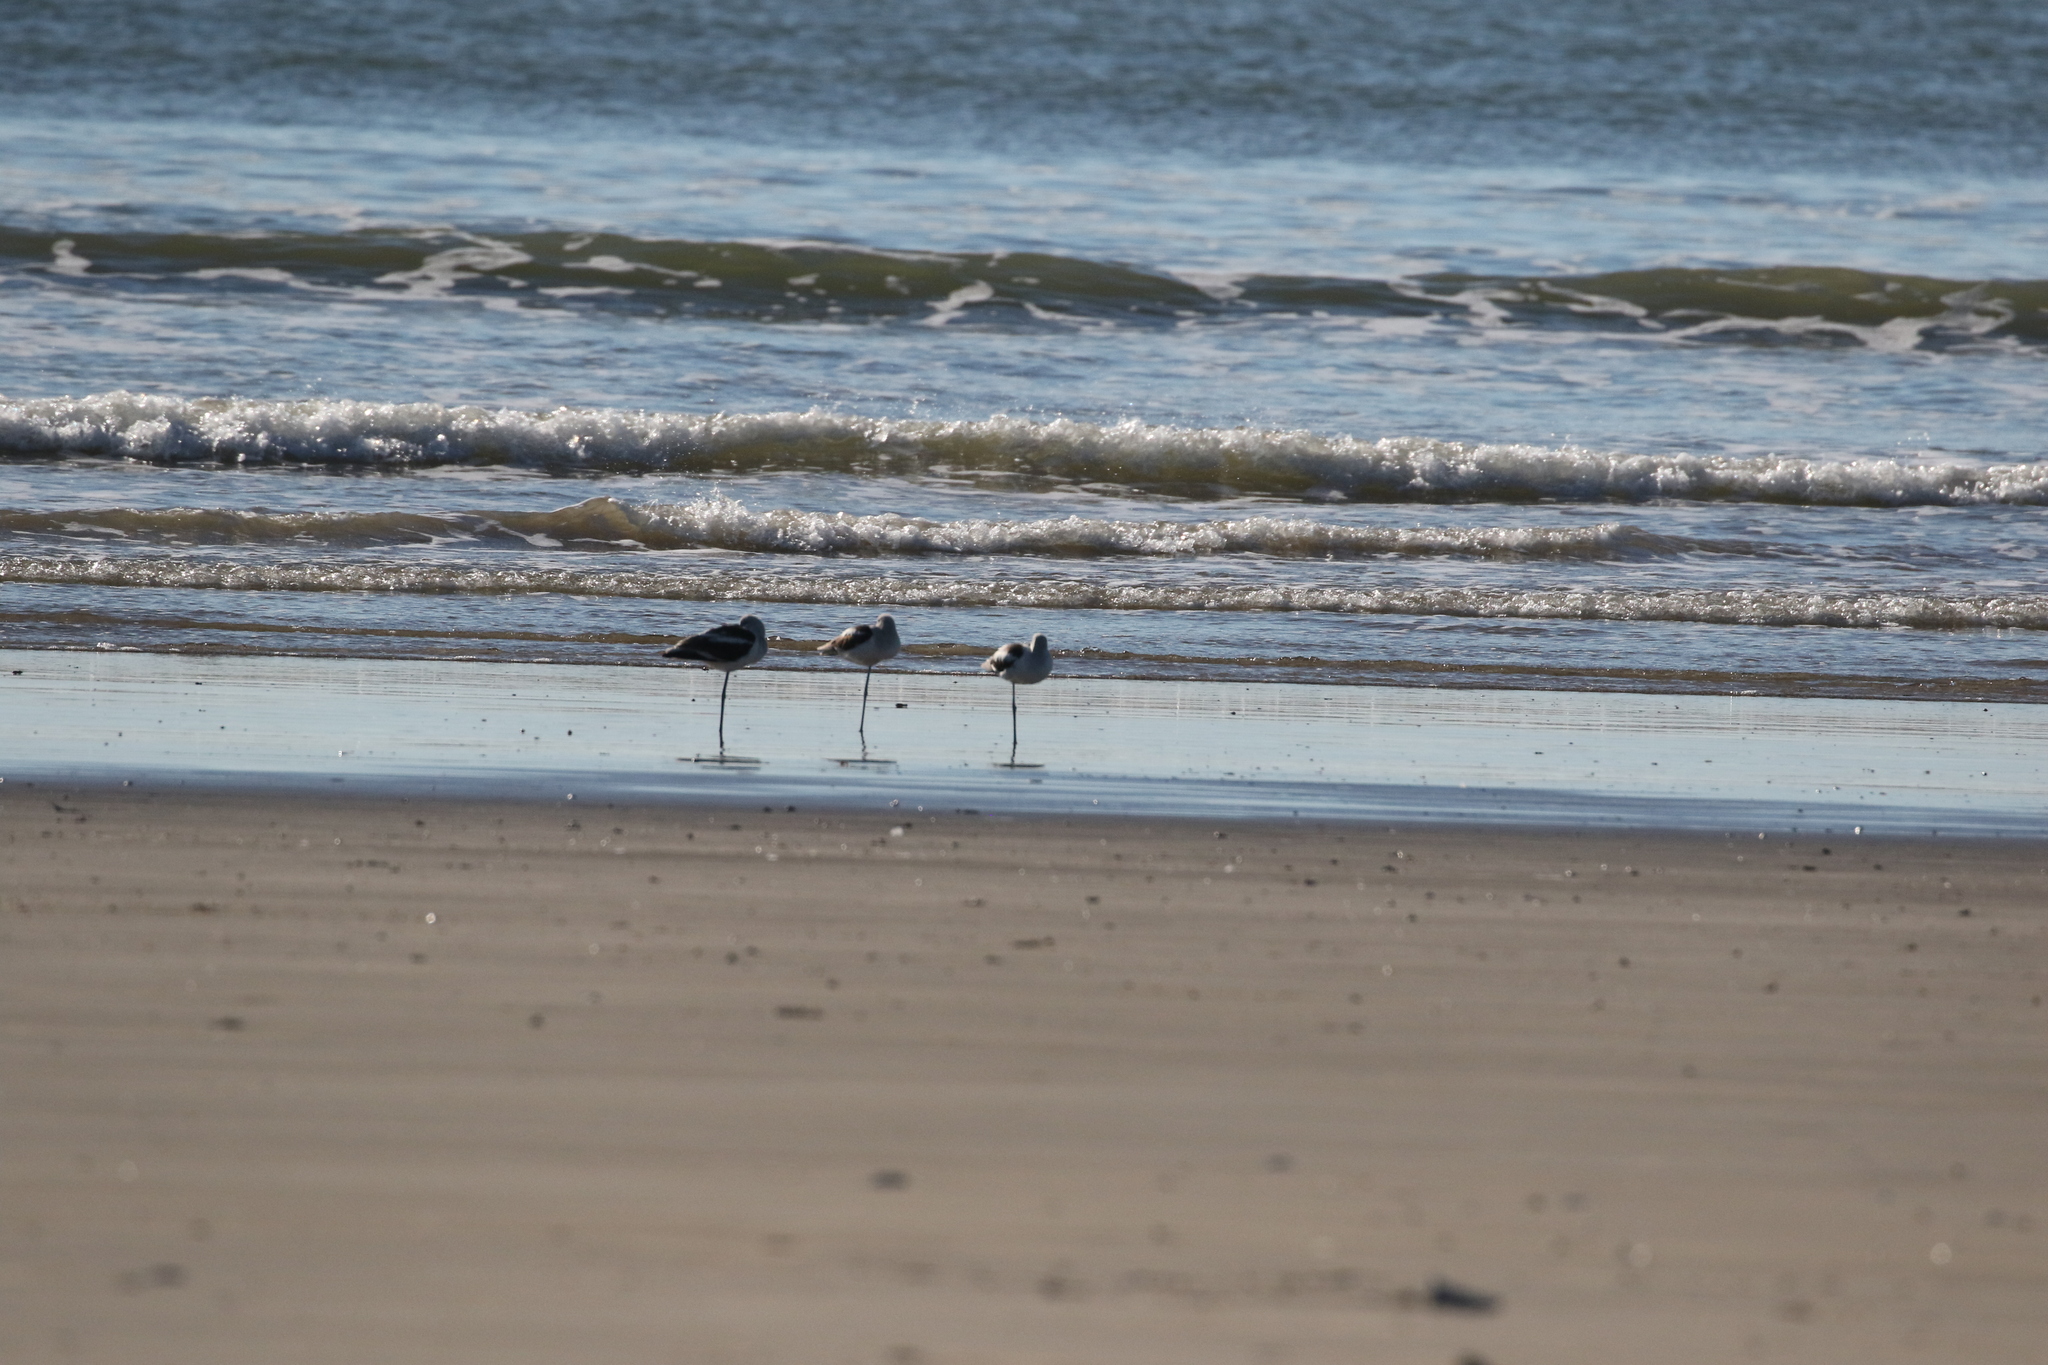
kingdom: Animalia
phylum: Chordata
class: Aves
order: Charadriiformes
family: Recurvirostridae
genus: Recurvirostra
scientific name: Recurvirostra americana
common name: American avocet
